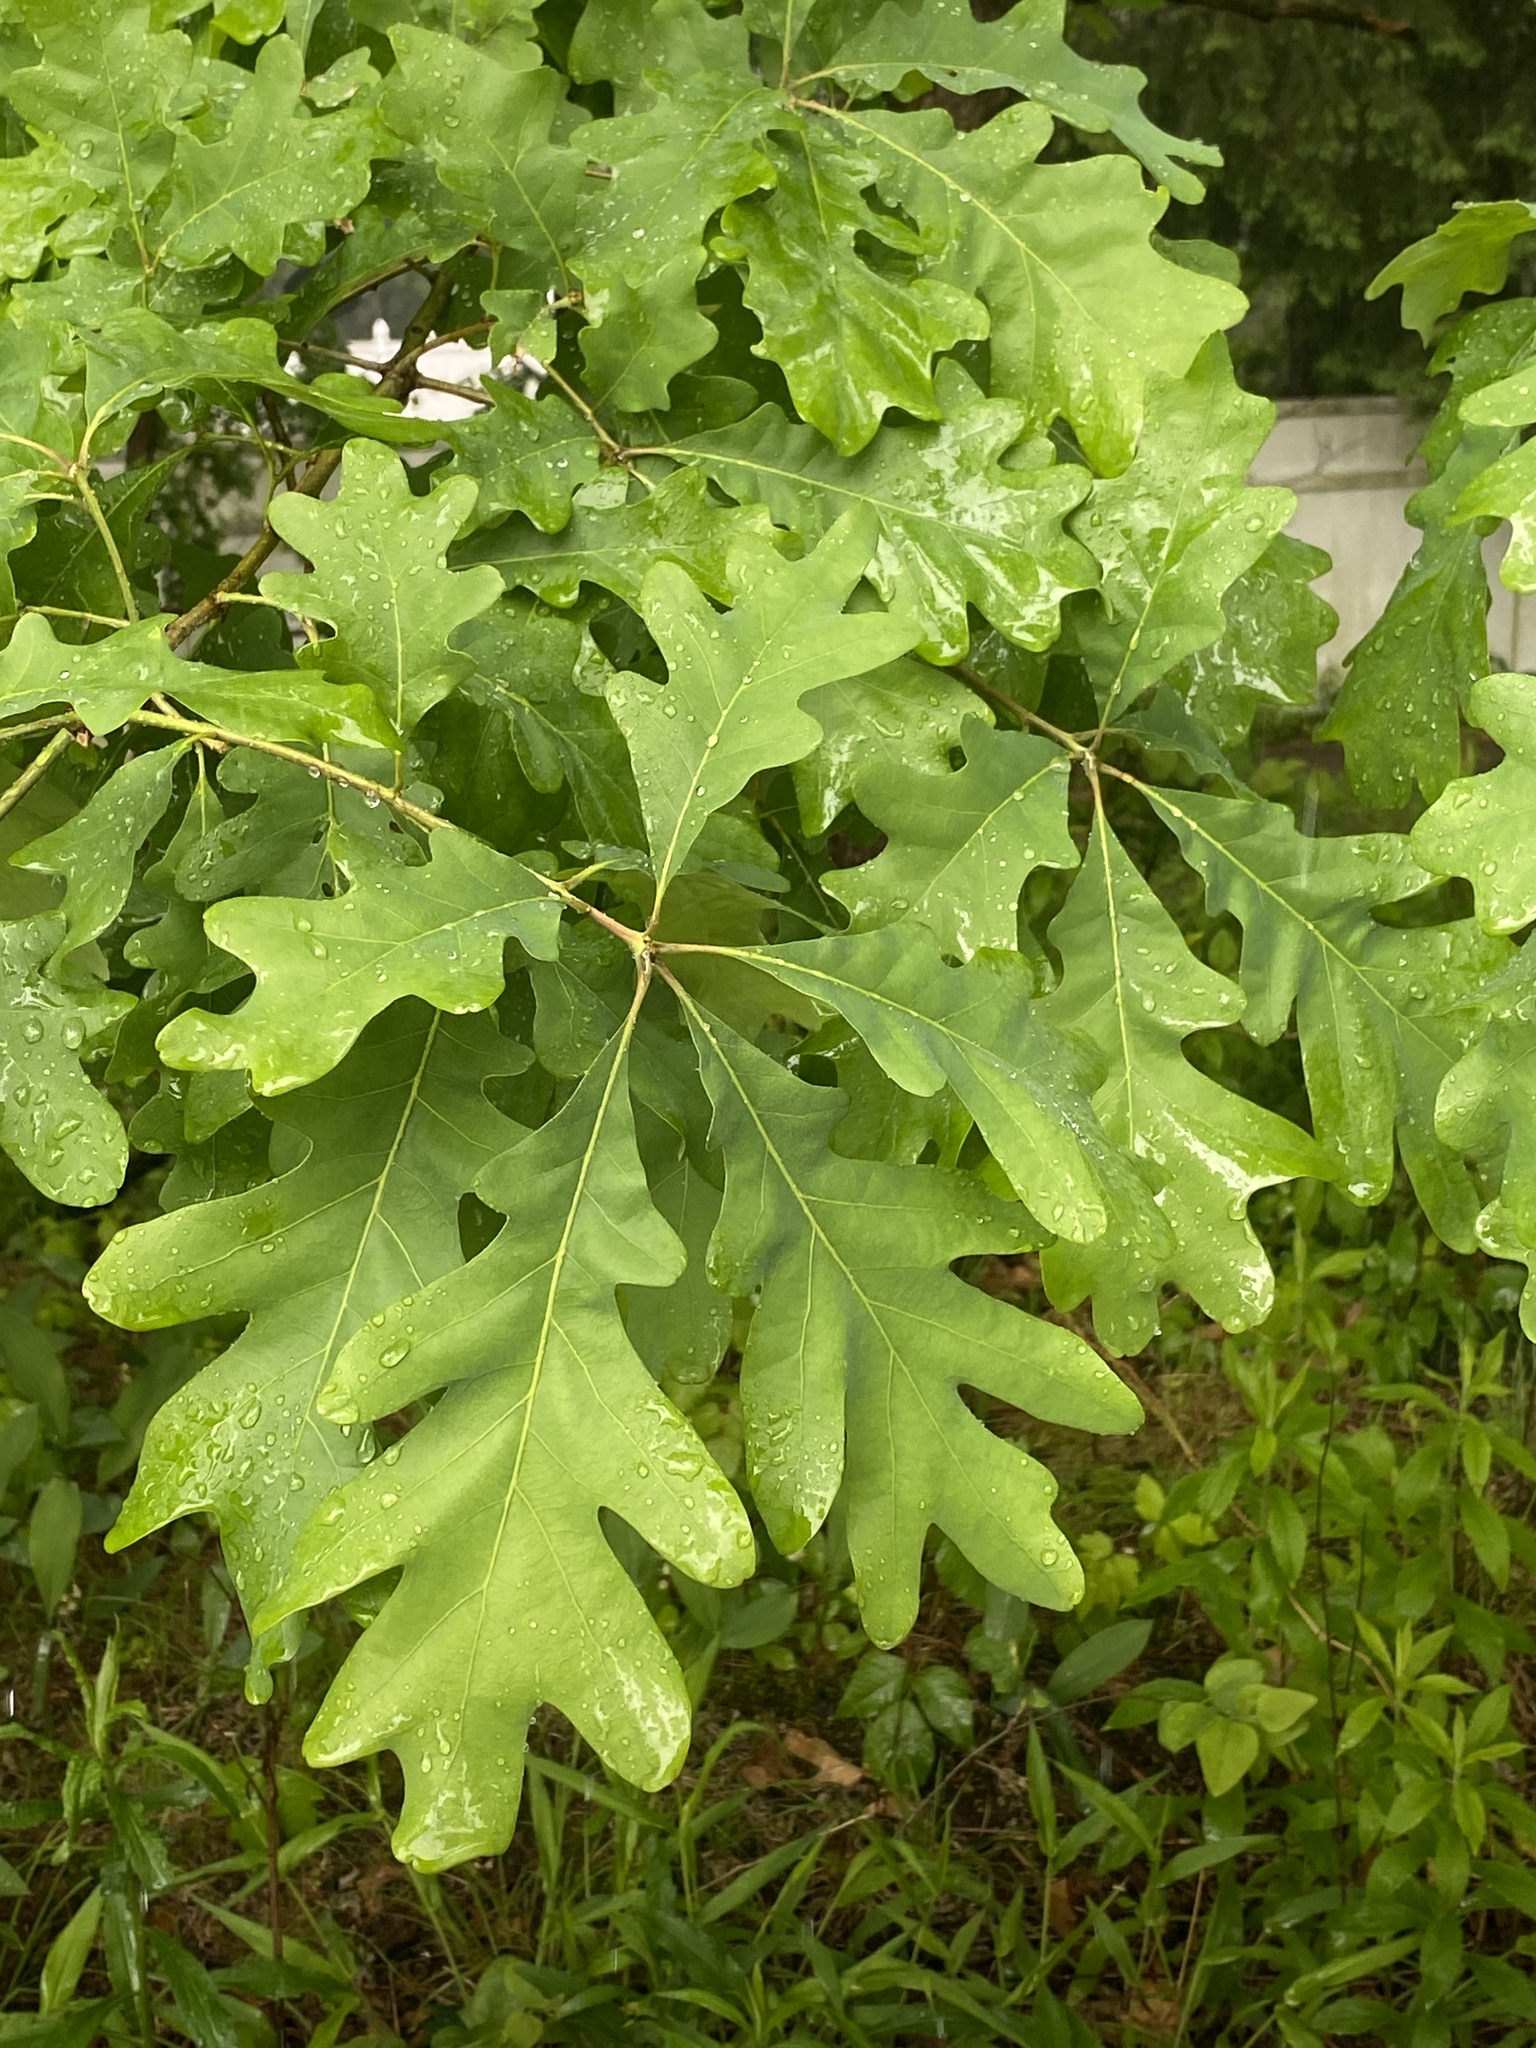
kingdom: Plantae
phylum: Tracheophyta
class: Magnoliopsida
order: Fagales
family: Fagaceae
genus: Quercus
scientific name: Quercus alba
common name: White oak
